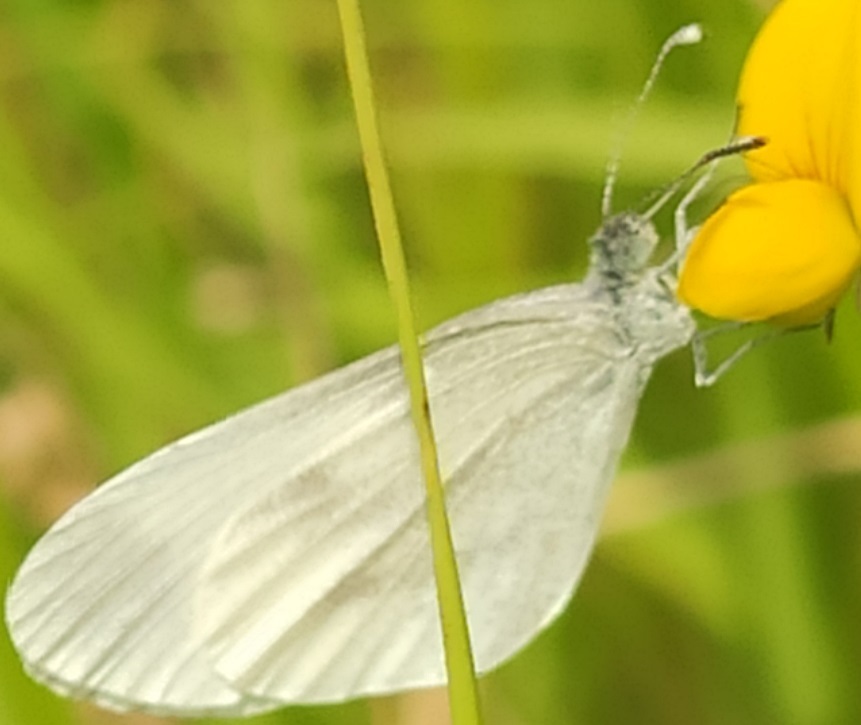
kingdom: Animalia
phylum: Arthropoda
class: Insecta
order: Lepidoptera
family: Pieridae
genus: Leptidea
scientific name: Leptidea sinapis
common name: Wood white
